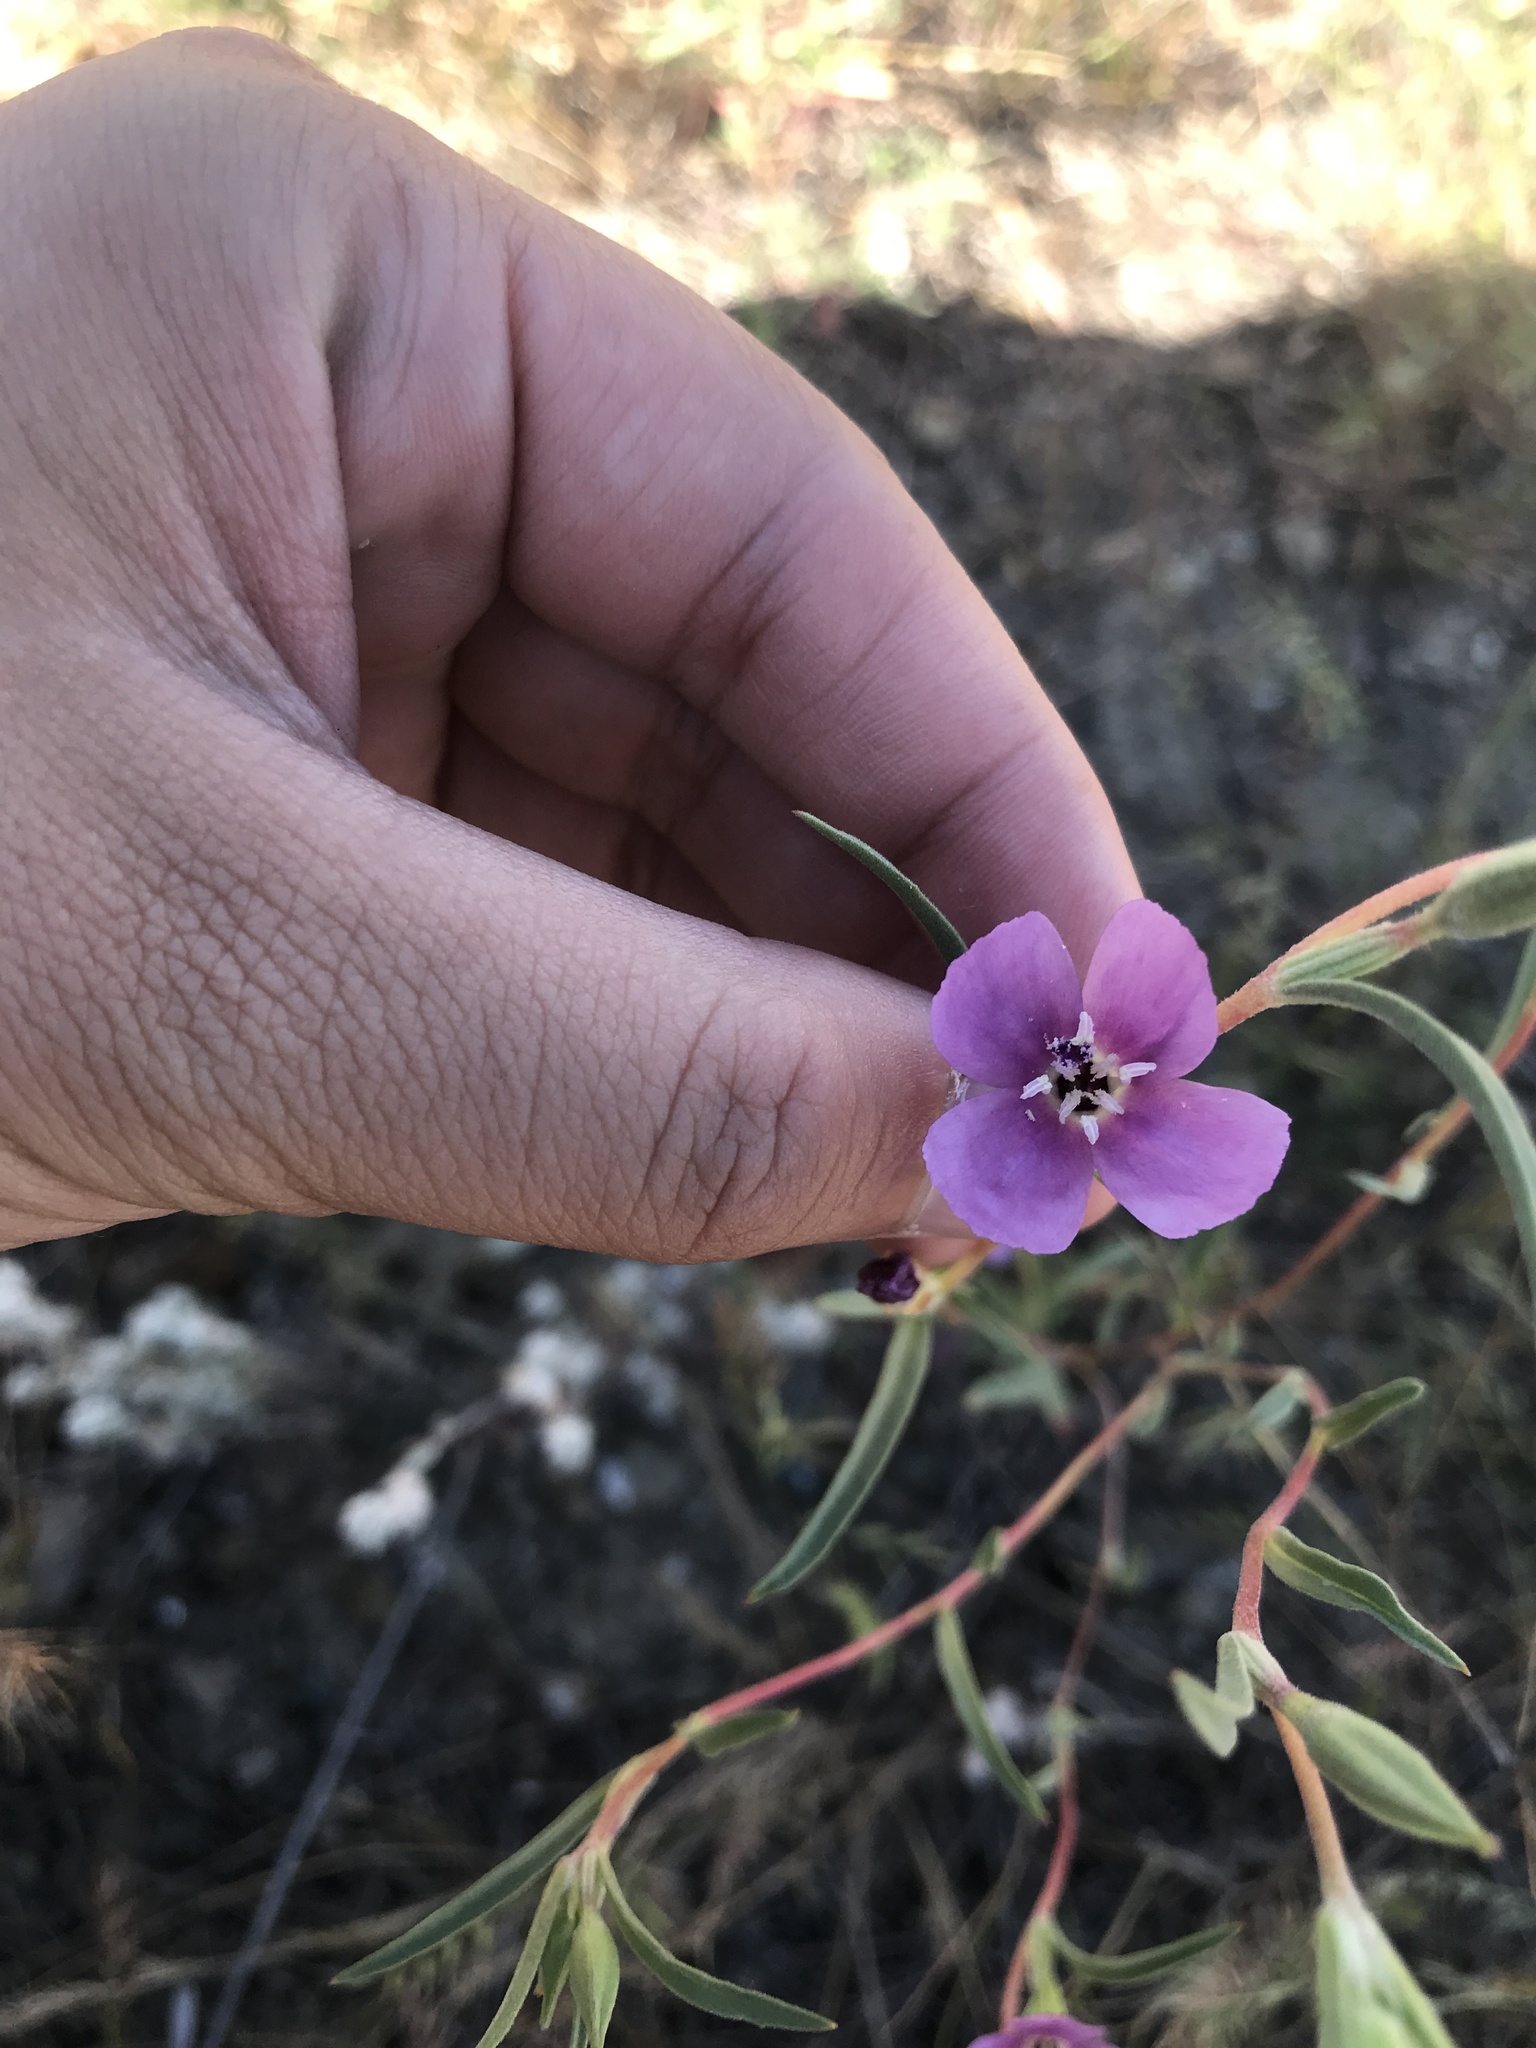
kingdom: Plantae
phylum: Tracheophyta
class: Magnoliopsida
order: Myrtales
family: Onagraceae
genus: Clarkia
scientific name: Clarkia purpurea
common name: Purple clarkia
